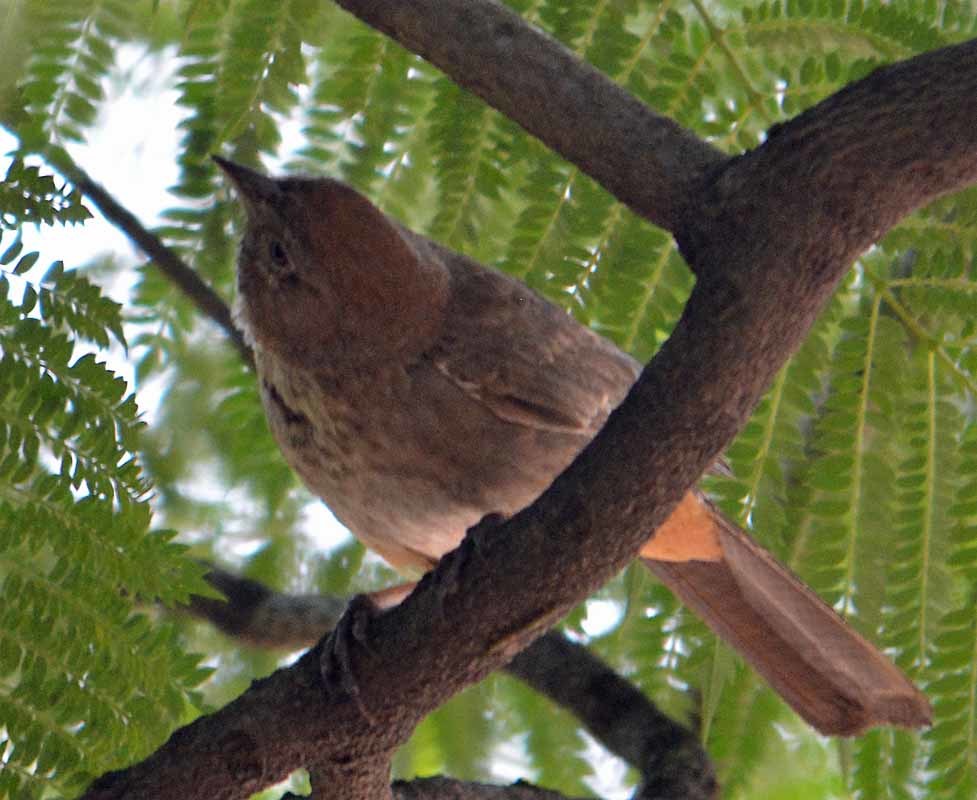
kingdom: Animalia
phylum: Chordata
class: Aves
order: Passeriformes
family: Passerellidae
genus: Melozone
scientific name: Melozone fusca
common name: Canyon towhee
